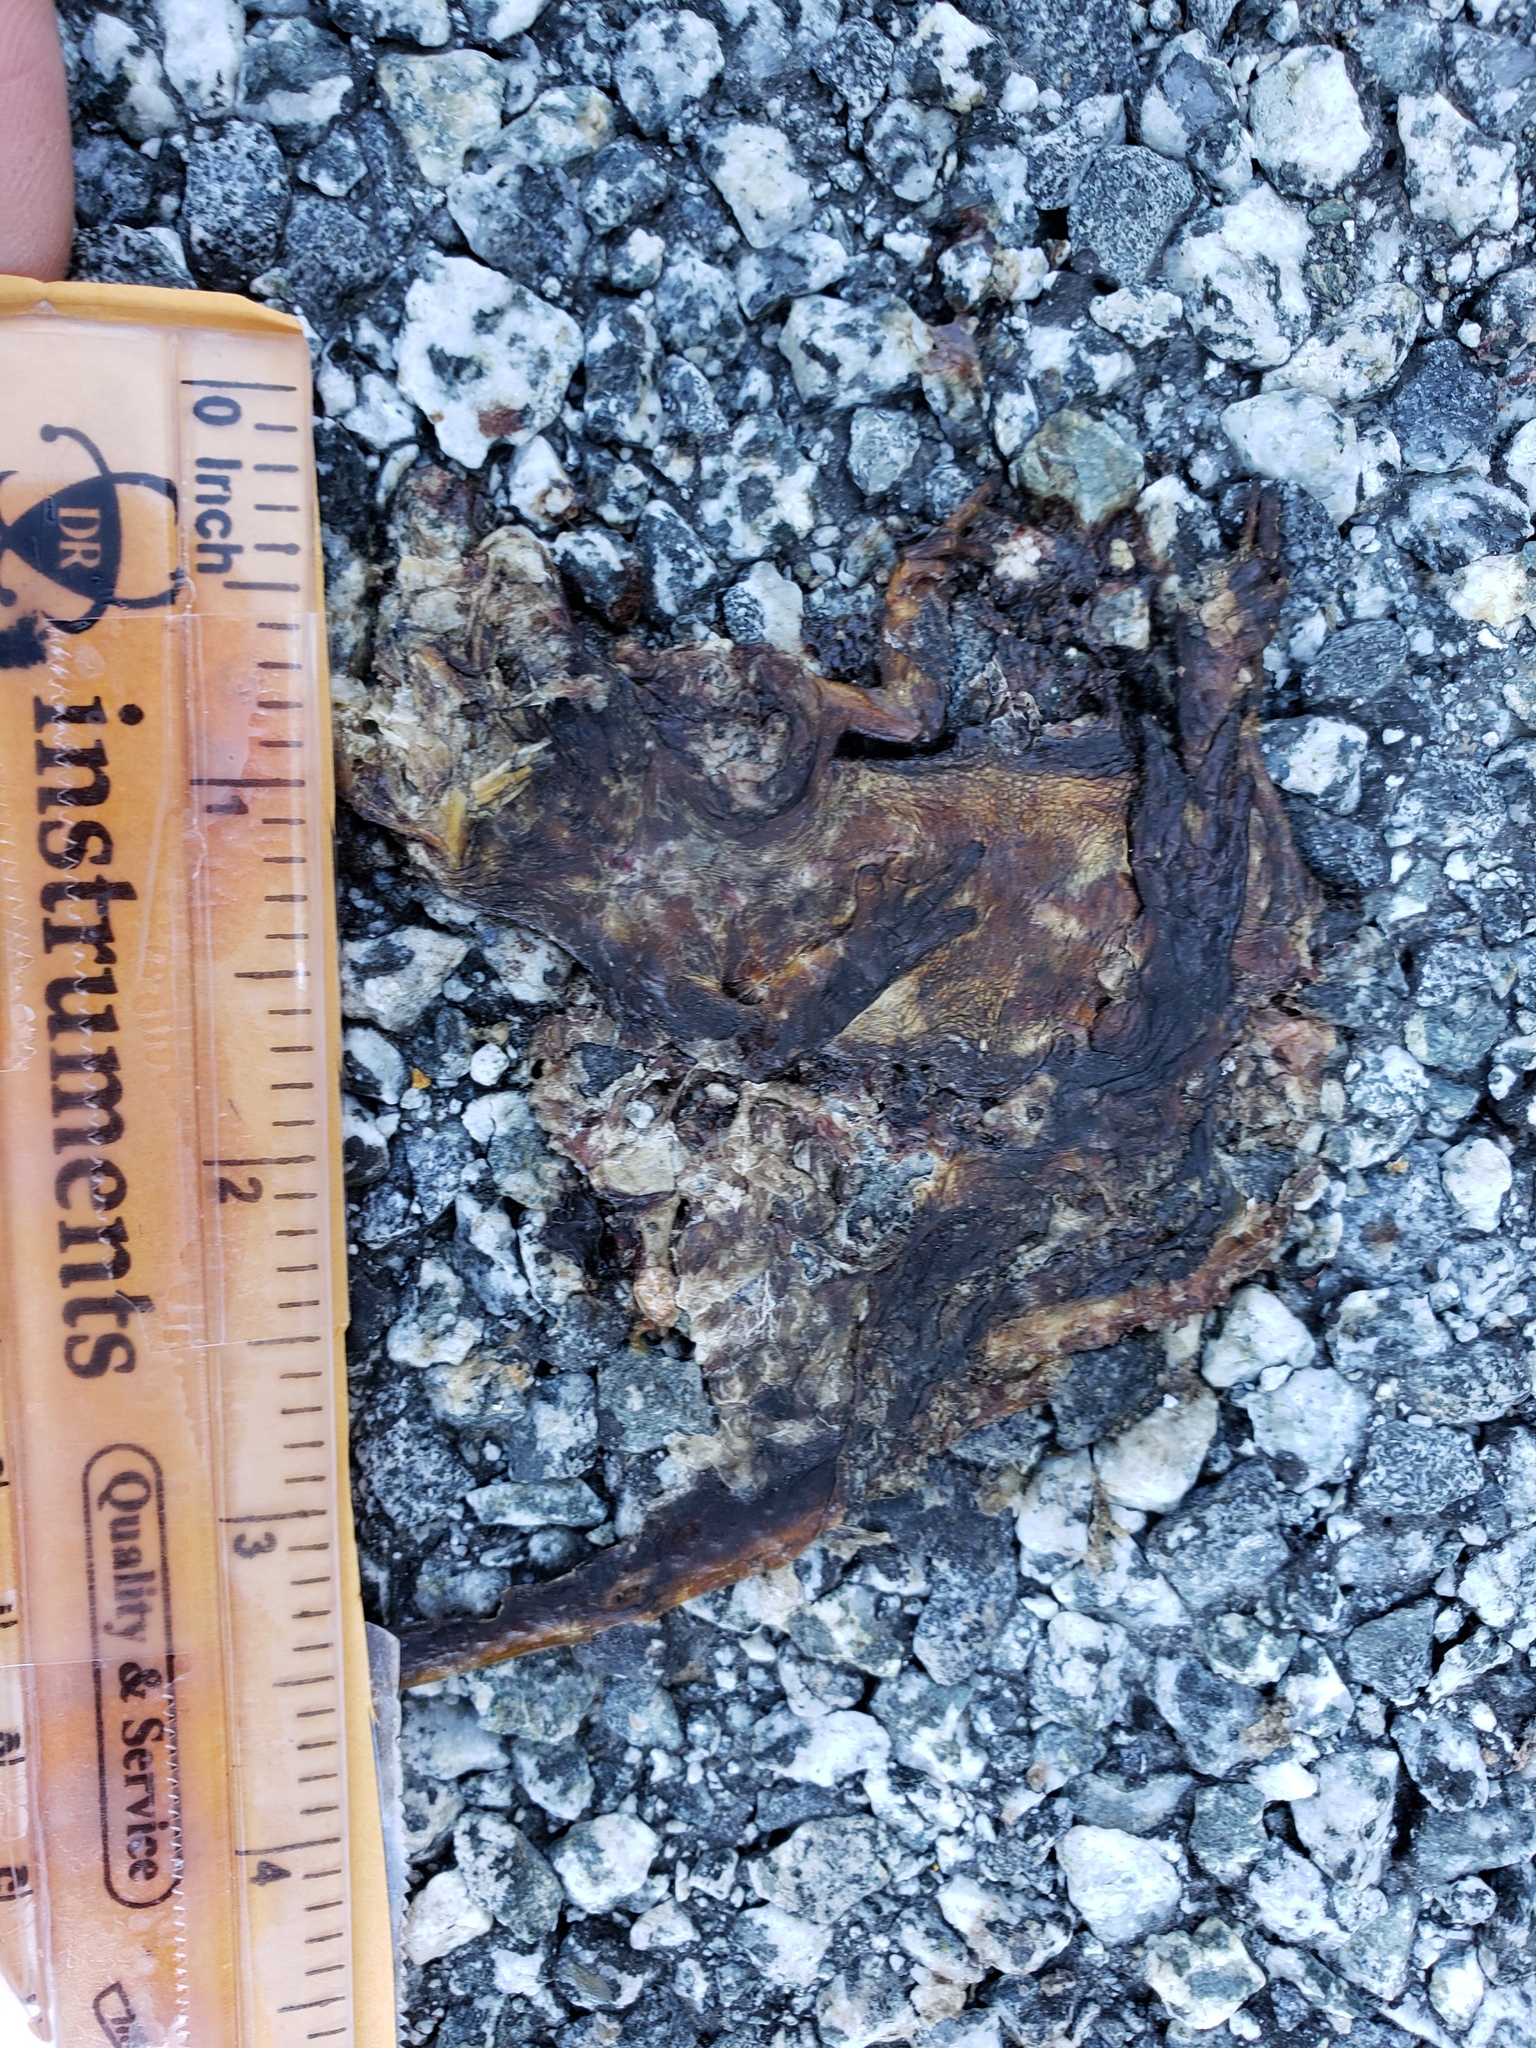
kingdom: Animalia
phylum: Chordata
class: Amphibia
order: Caudata
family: Salamandridae
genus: Taricha
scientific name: Taricha
